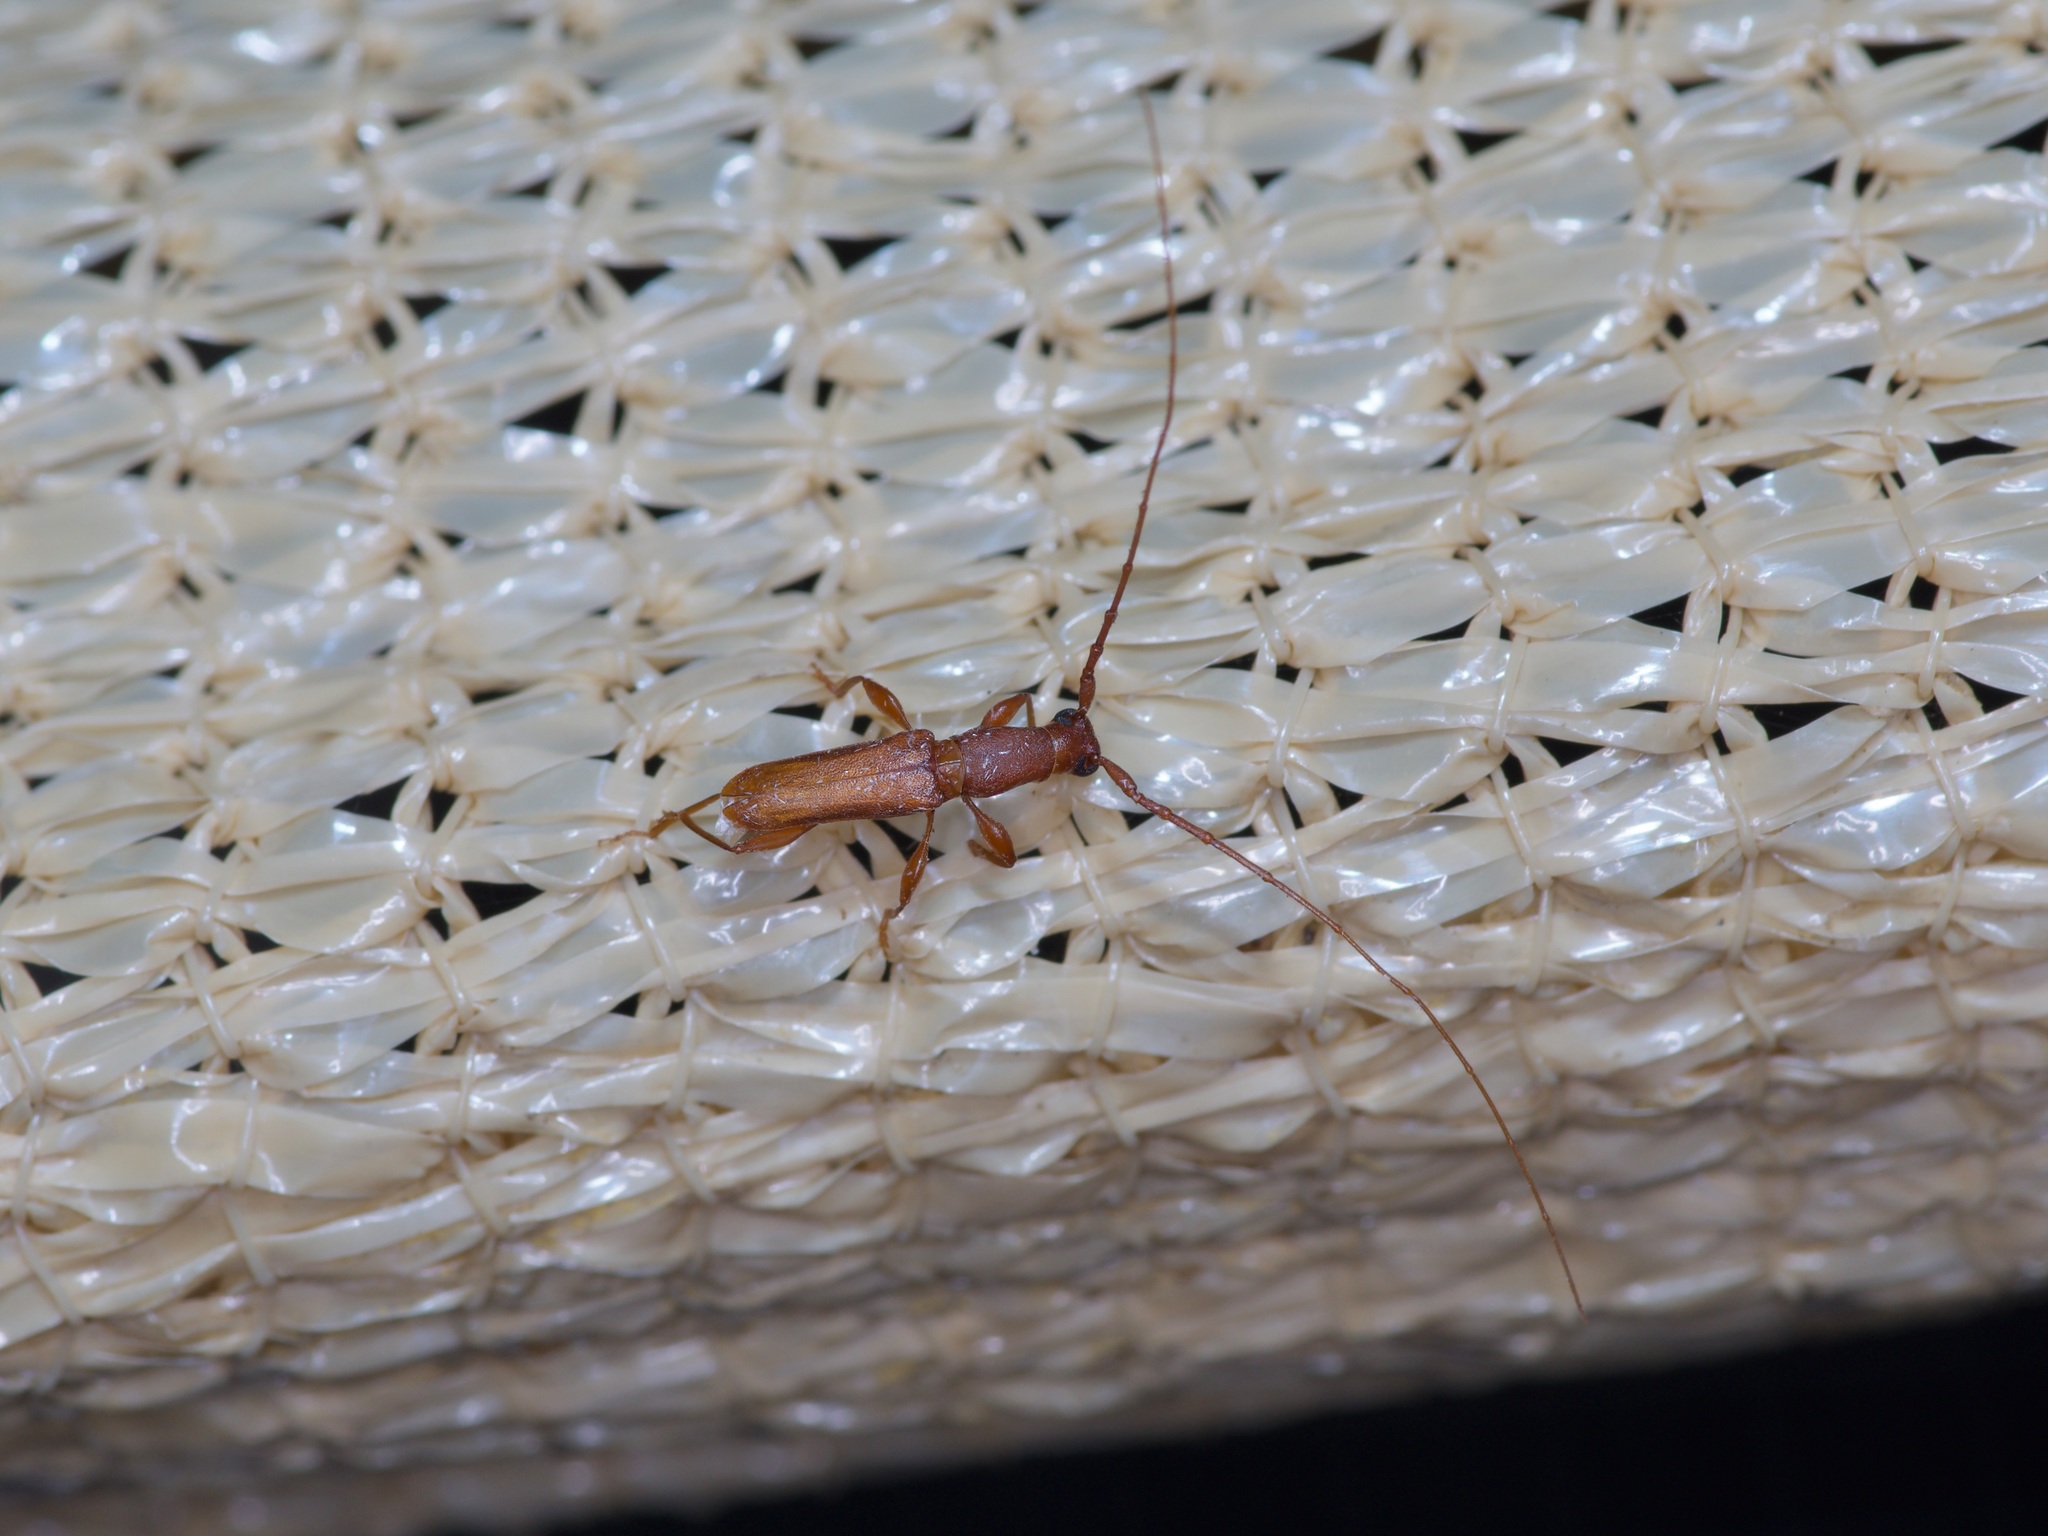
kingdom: Animalia
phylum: Arthropoda
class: Insecta
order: Coleoptera
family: Cerambycidae
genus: Hypexilis
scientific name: Hypexilis pallida
